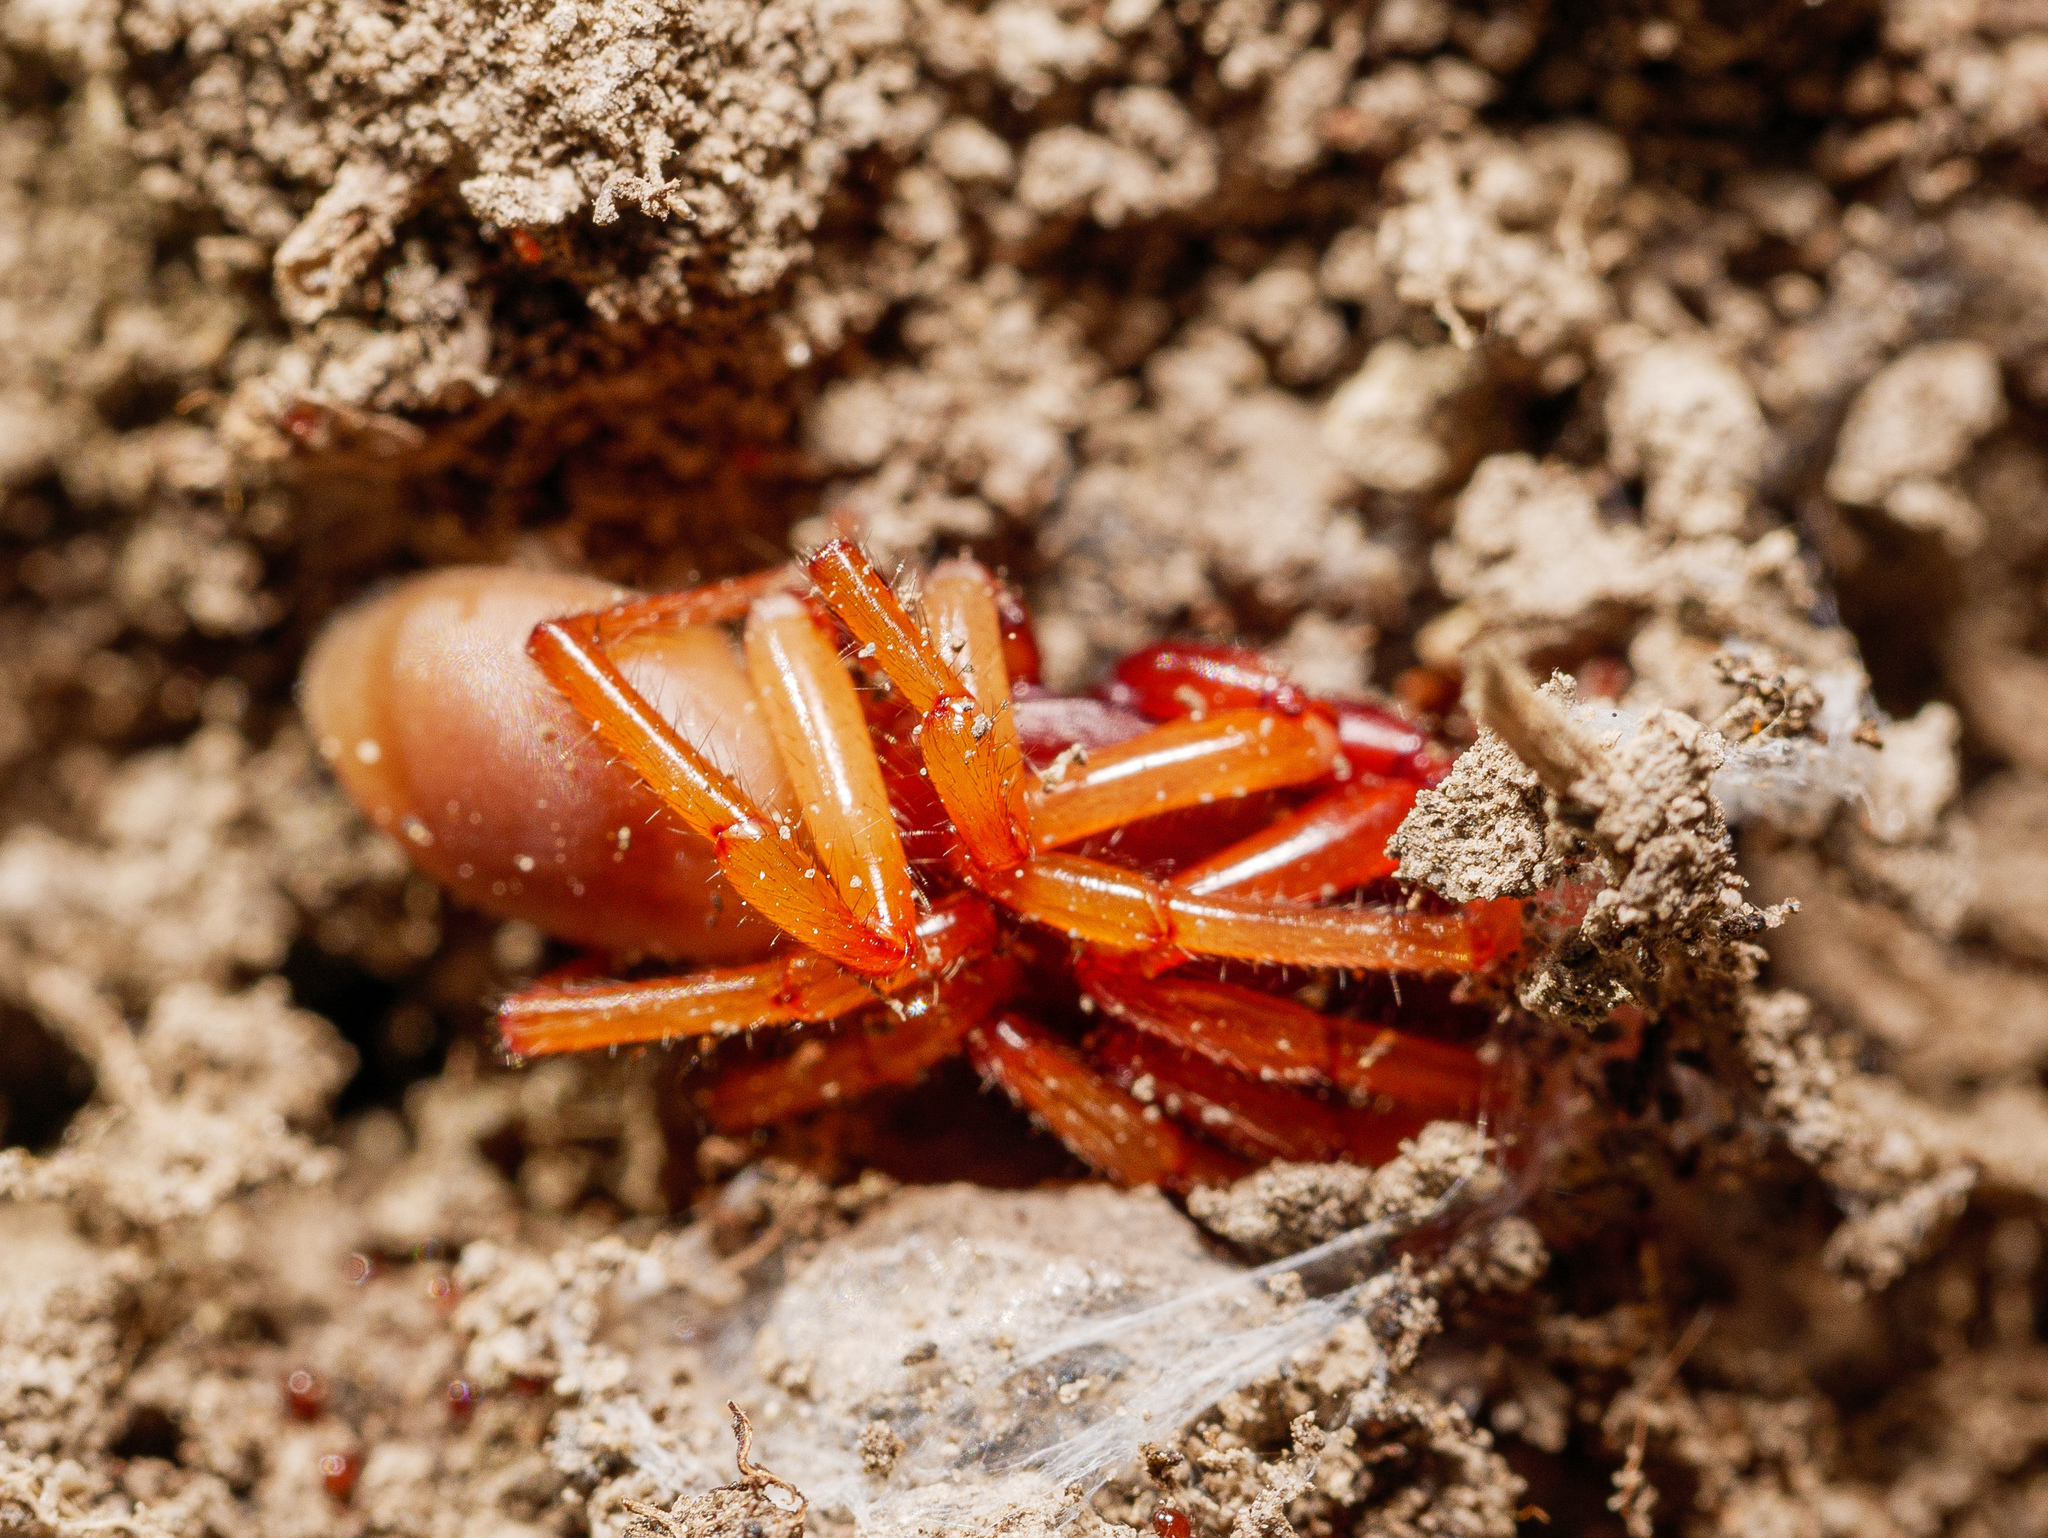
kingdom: Animalia
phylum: Arthropoda
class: Arachnida
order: Araneae
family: Dysderidae
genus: Dysdera
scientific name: Dysdera crocata
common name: Woodlouse spider
